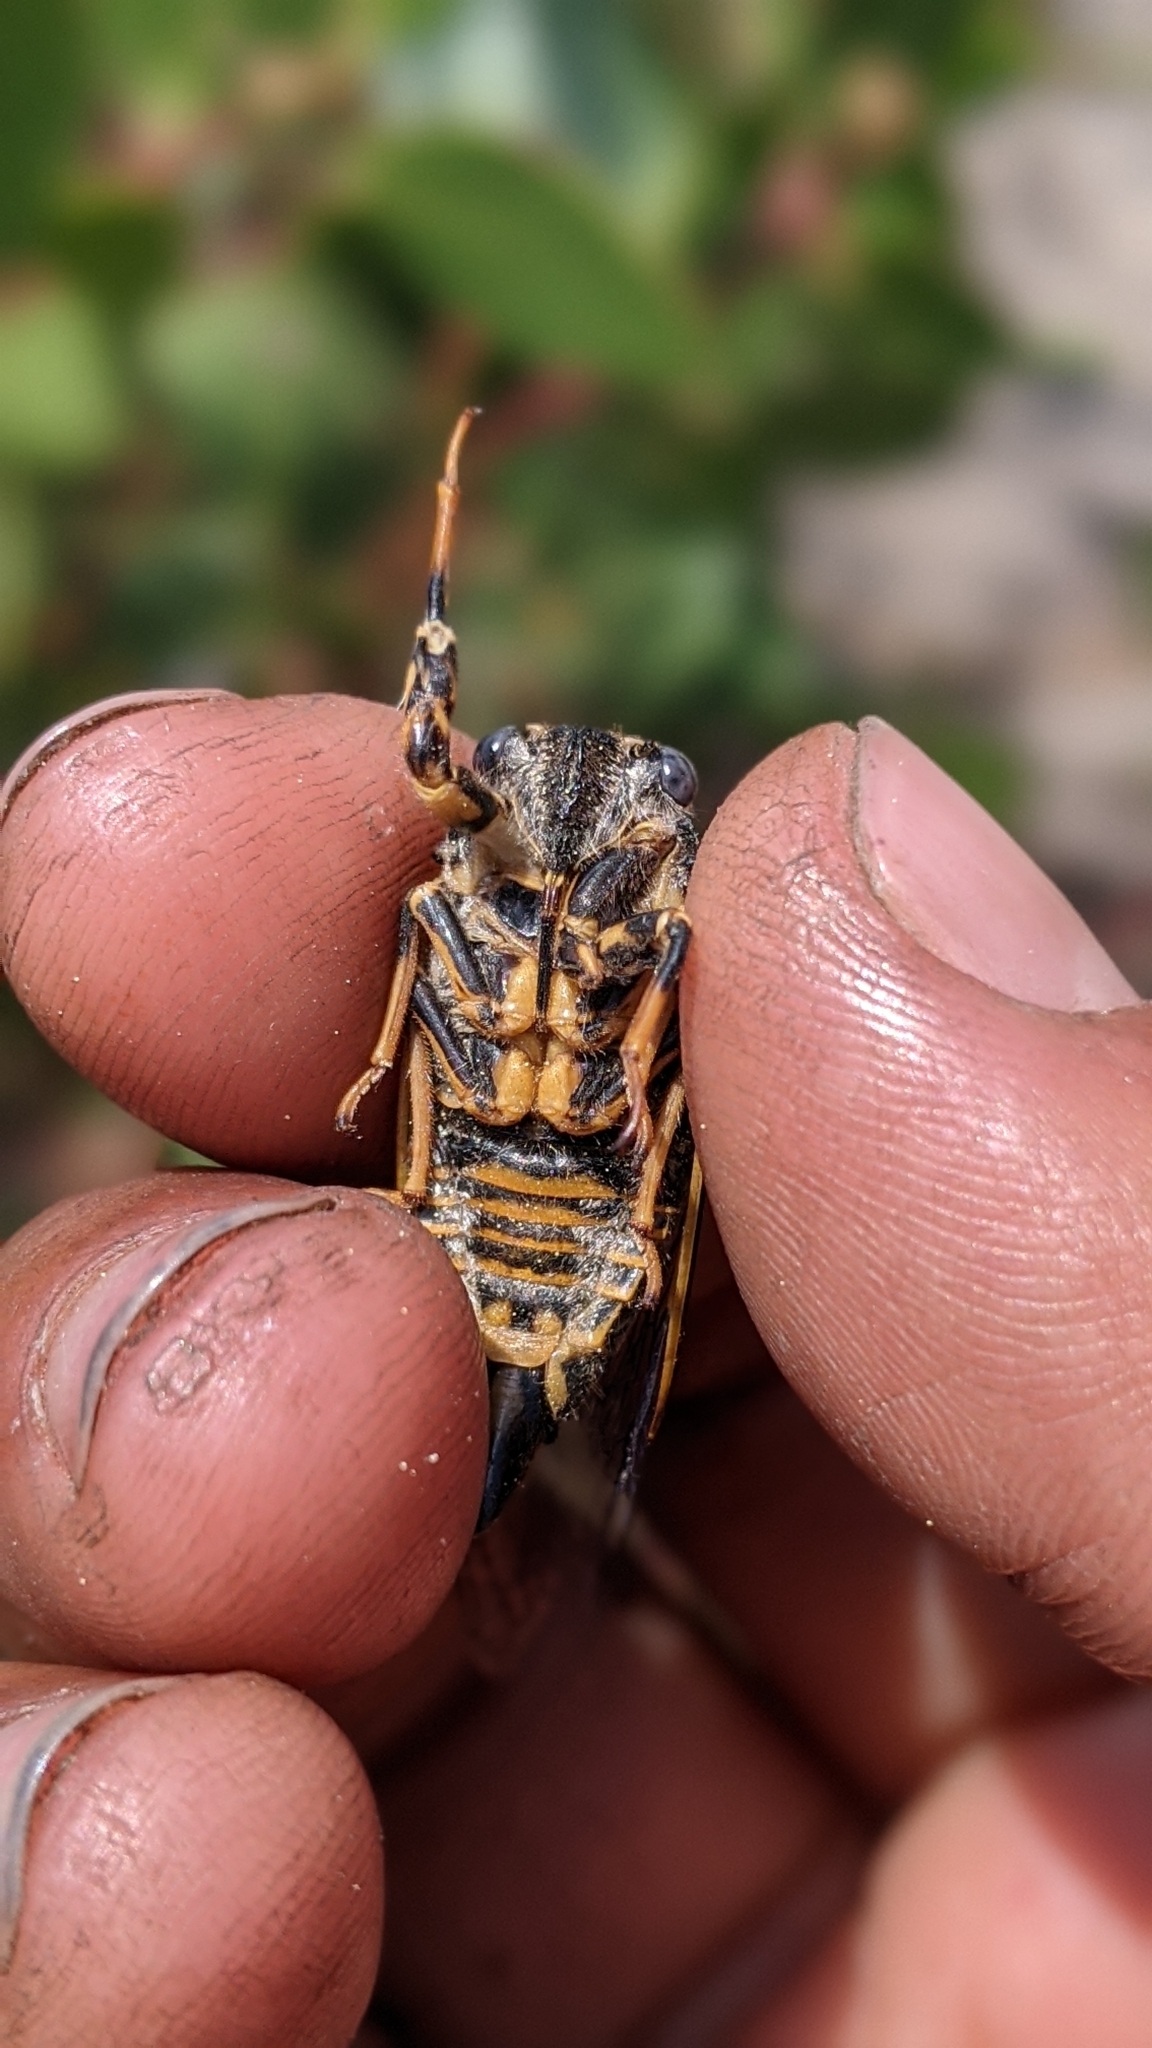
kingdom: Animalia
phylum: Arthropoda
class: Insecta
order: Hemiptera
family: Cicadidae
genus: Okanagana
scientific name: Okanagana nigrodorsata
